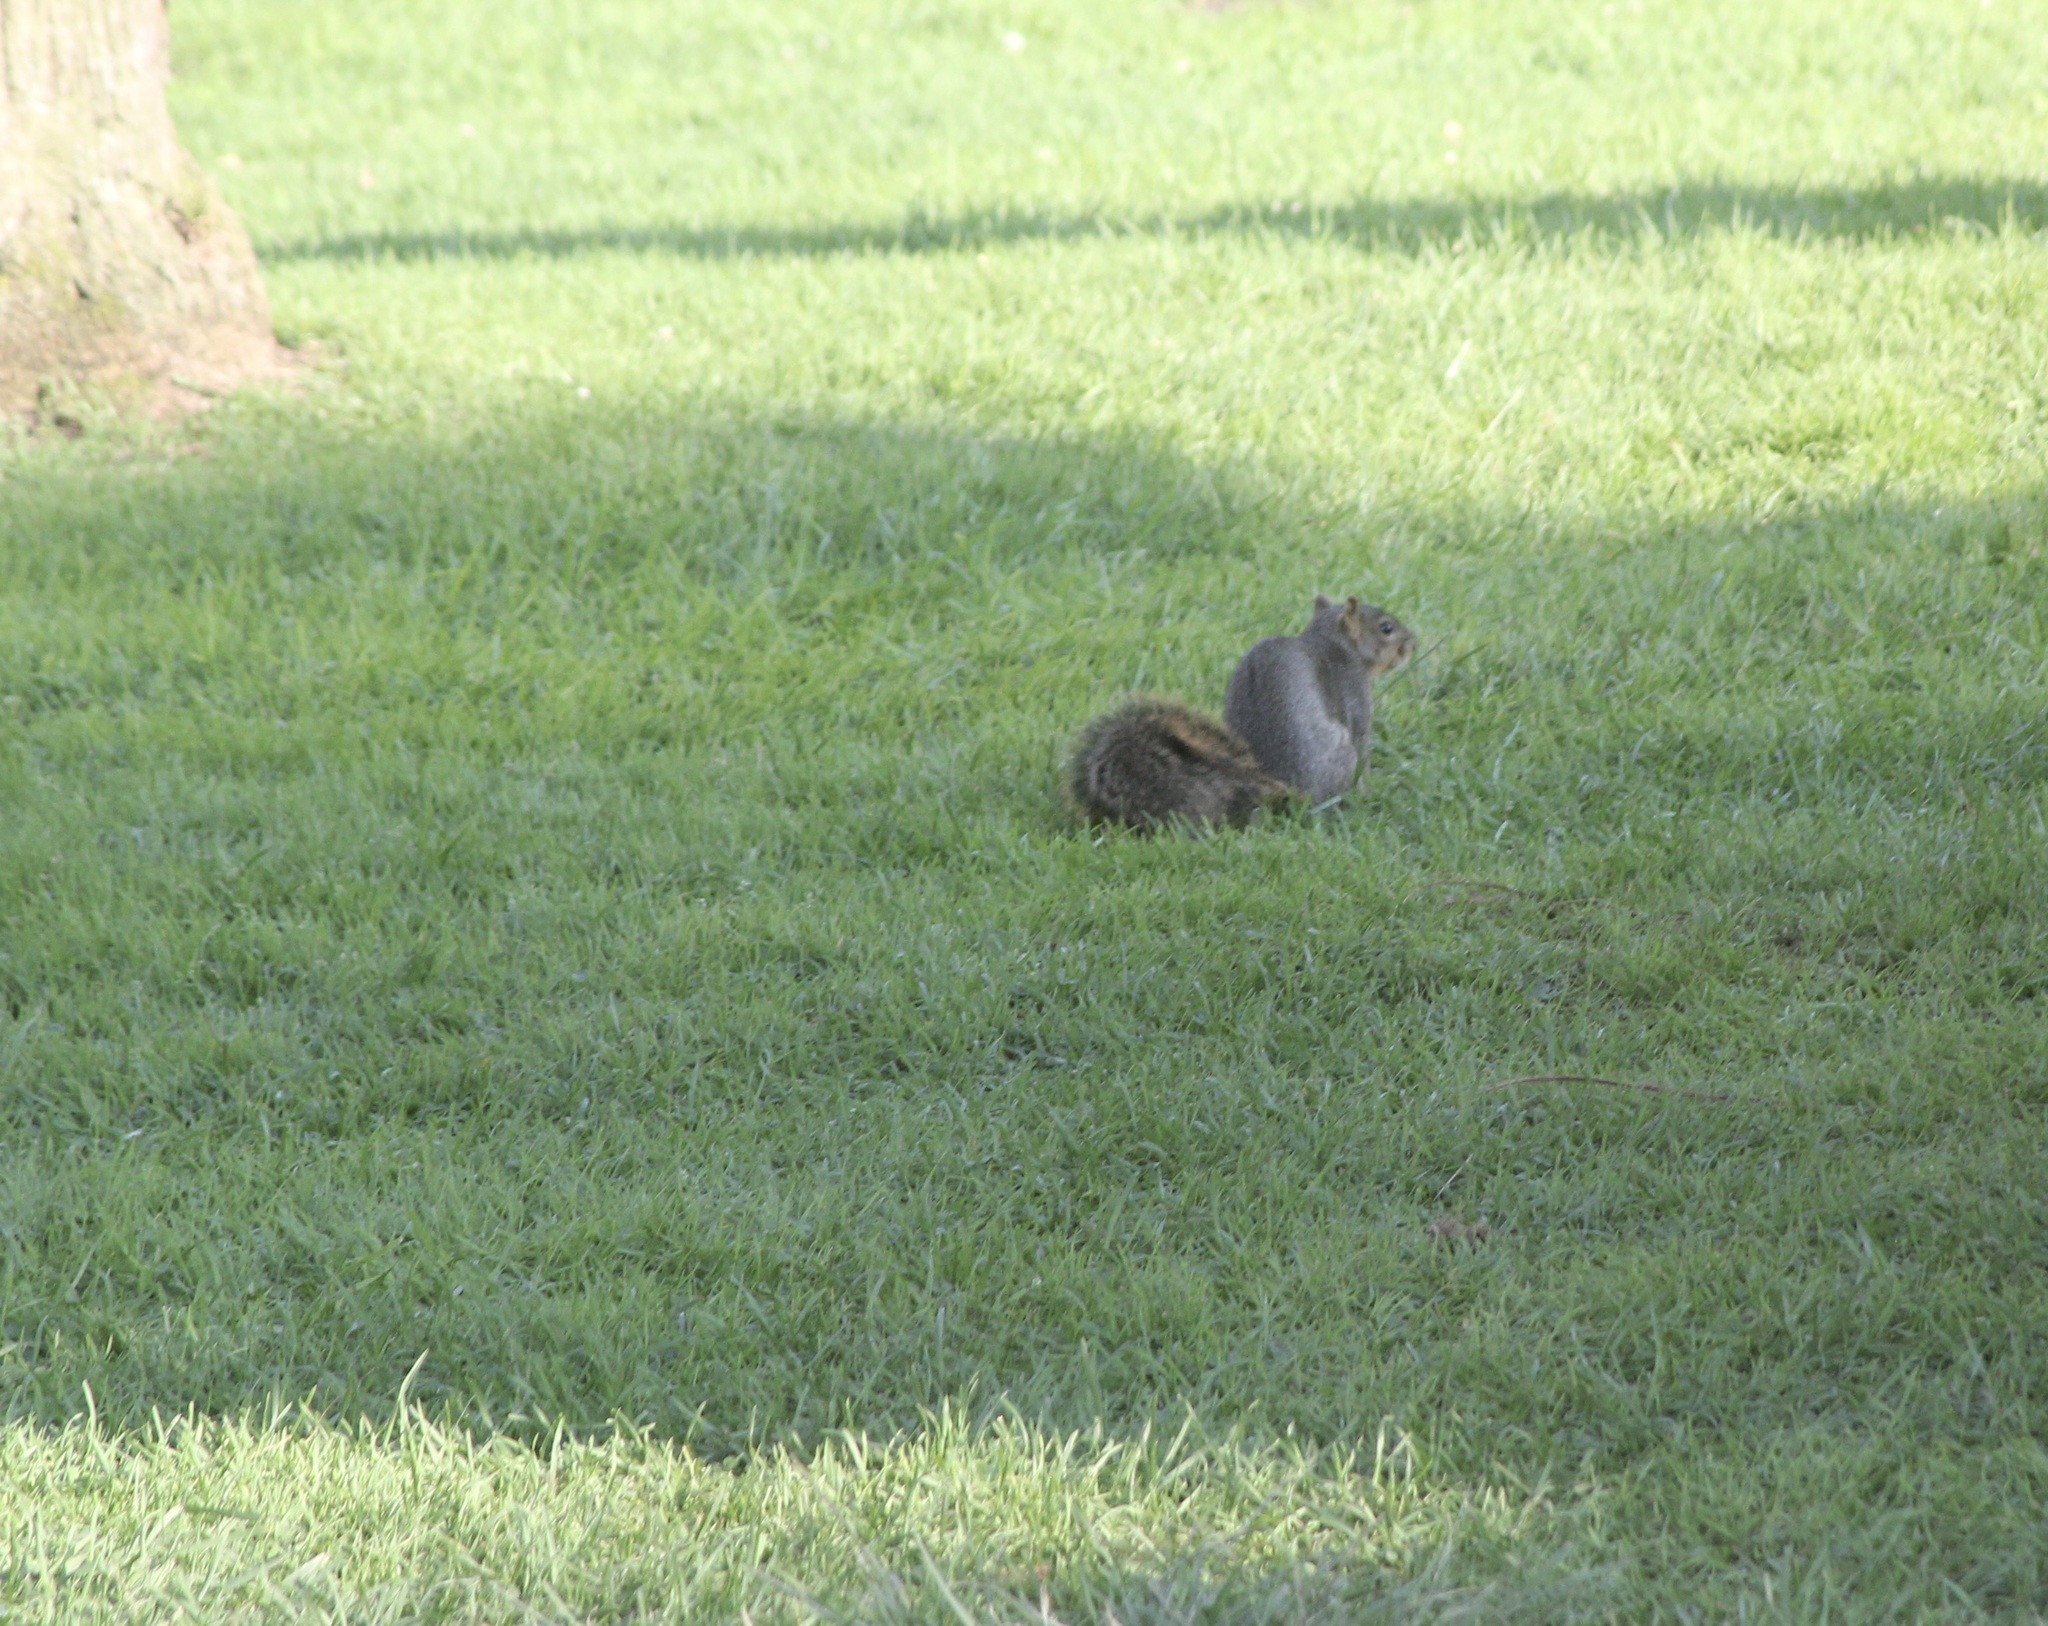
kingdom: Animalia
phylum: Chordata
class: Mammalia
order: Rodentia
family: Sciuridae
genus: Sciurus
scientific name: Sciurus niger
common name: Fox squirrel
